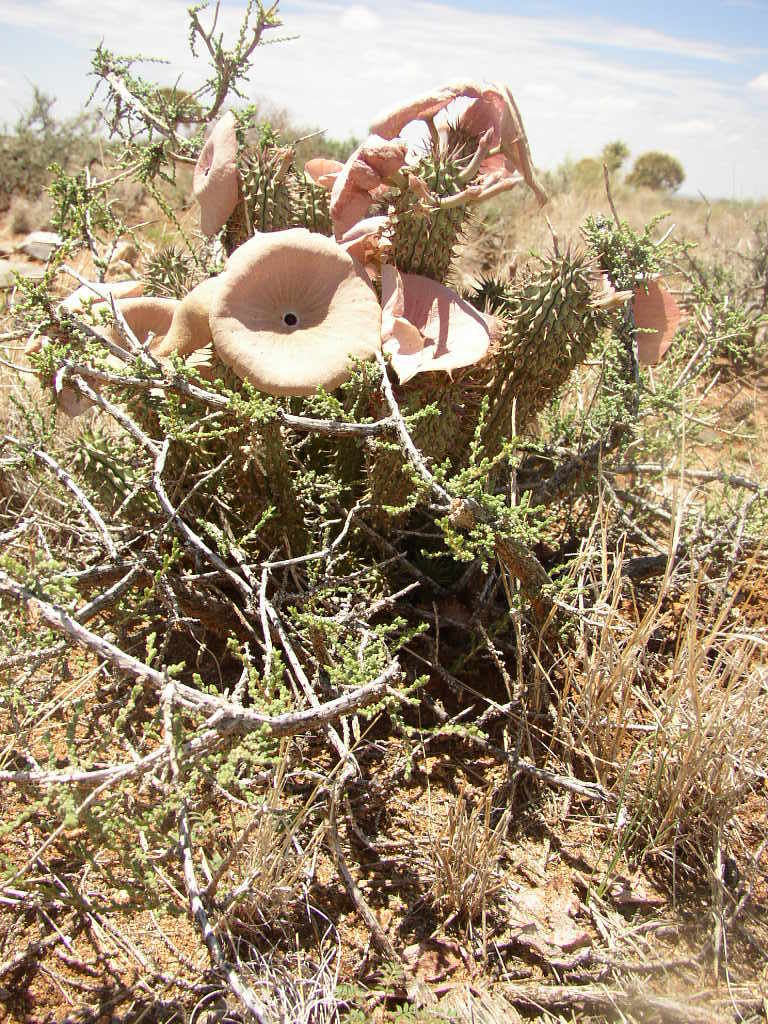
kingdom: Plantae
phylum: Tracheophyta
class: Magnoliopsida
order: Gentianales
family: Apocynaceae
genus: Hoodia
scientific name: Hoodia gordonii
